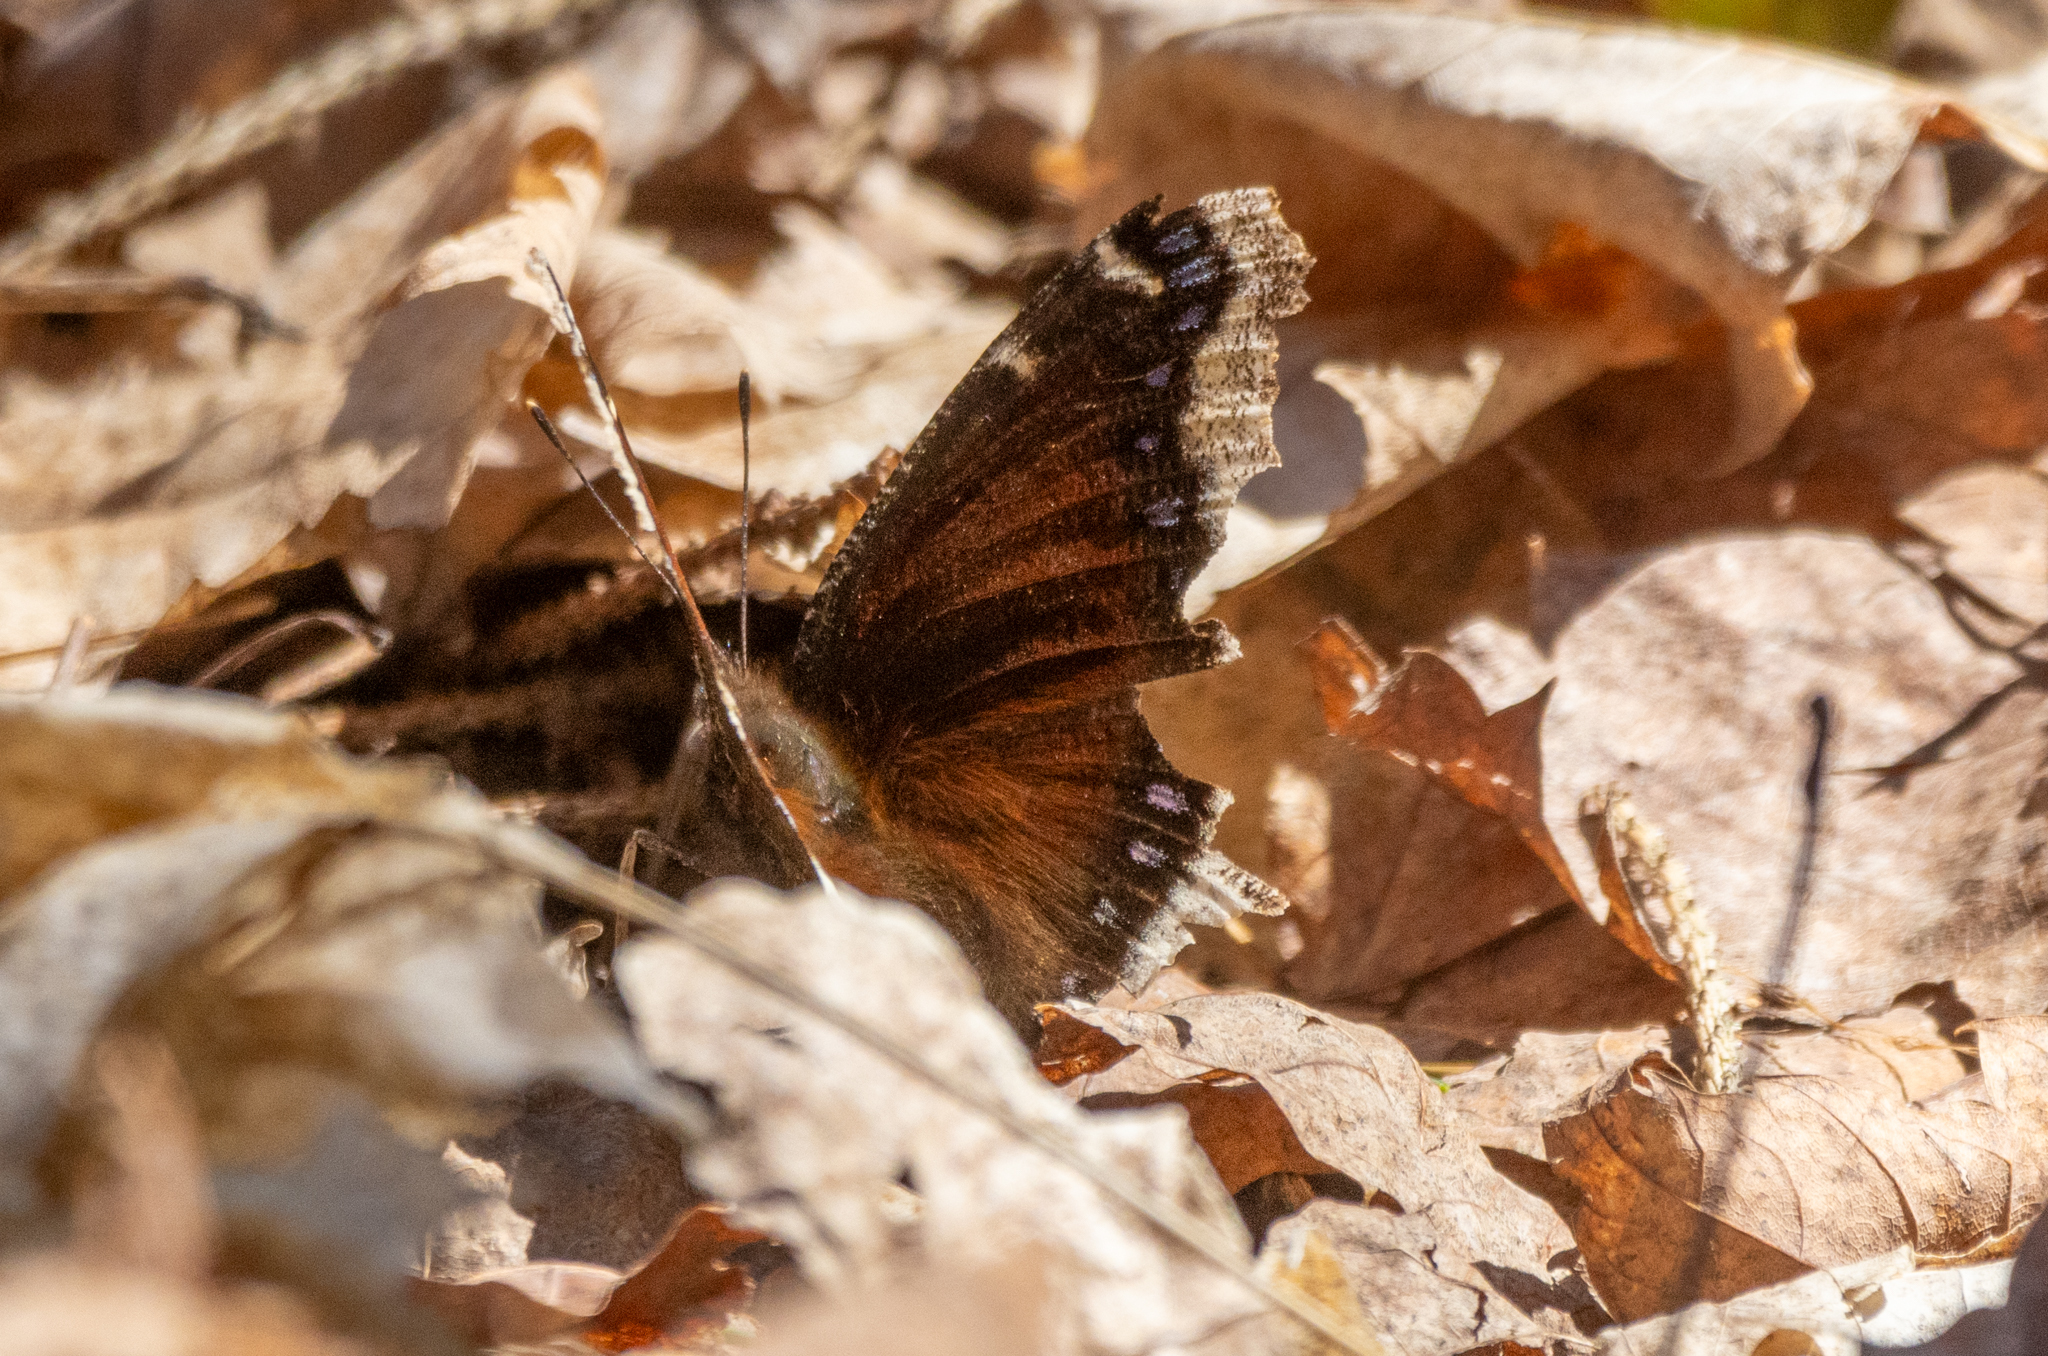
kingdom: Animalia
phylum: Arthropoda
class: Insecta
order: Lepidoptera
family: Nymphalidae
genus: Nymphalis
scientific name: Nymphalis antiopa
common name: Camberwell beauty
